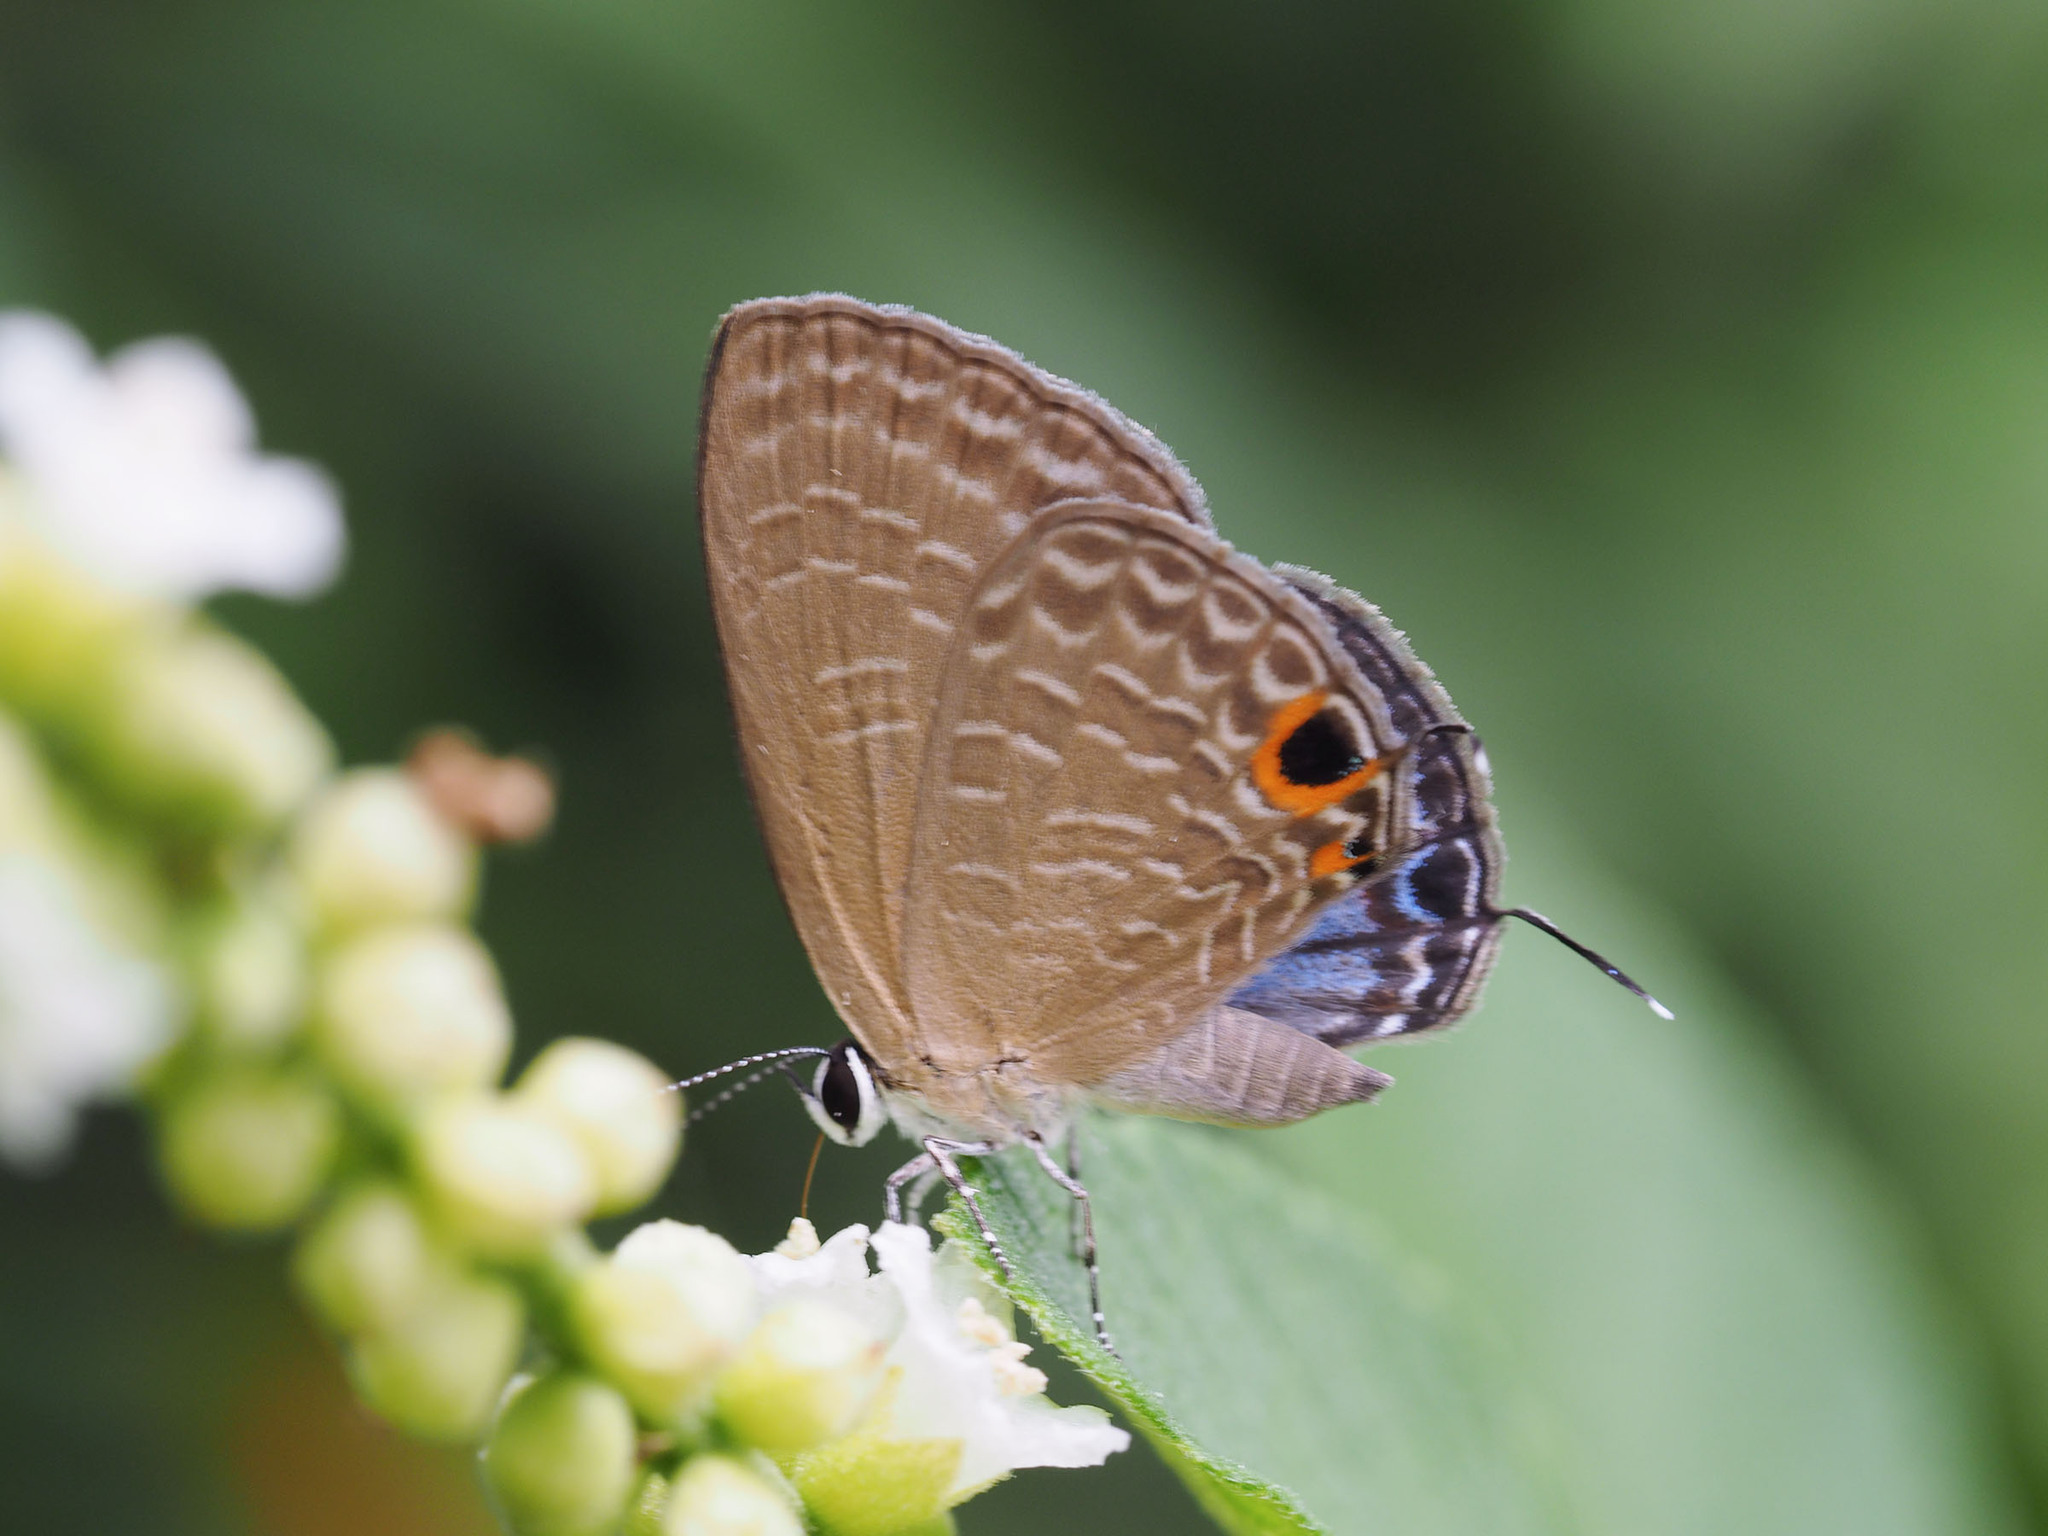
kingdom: Animalia
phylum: Arthropoda
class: Insecta
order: Lepidoptera
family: Lycaenidae
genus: Jamides
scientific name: Jamides bochus
